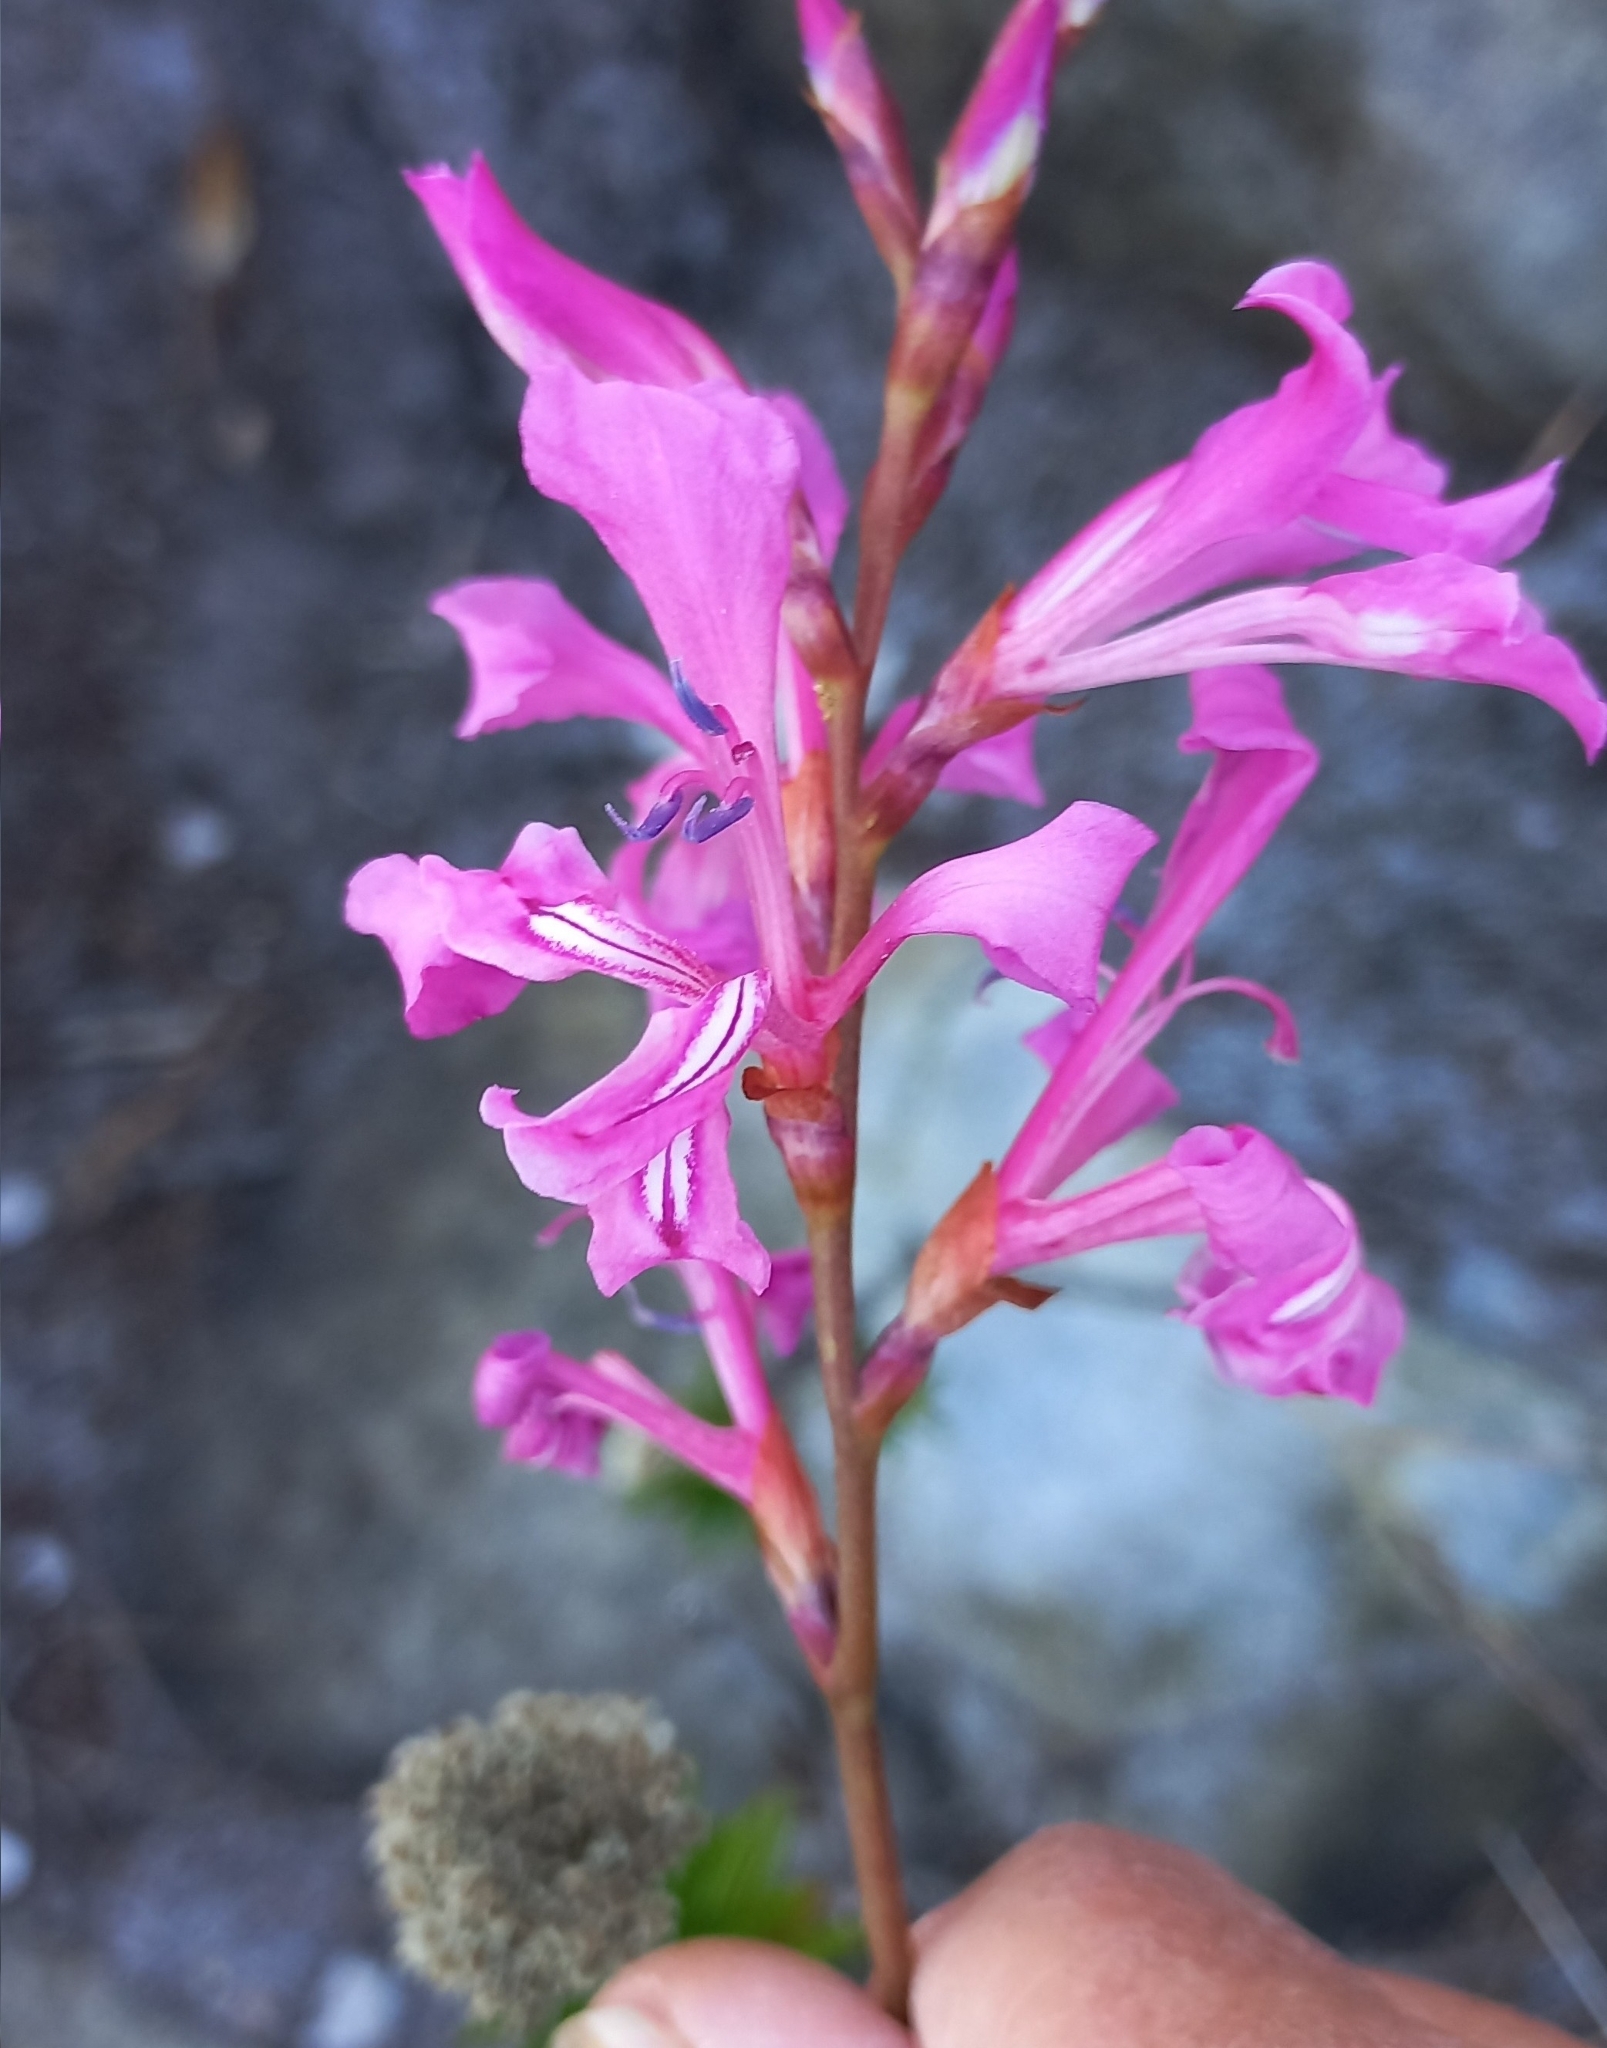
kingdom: Plantae
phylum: Tracheophyta
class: Liliopsida
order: Asparagales
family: Iridaceae
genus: Tritoniopsis
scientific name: Tritoniopsis lata
